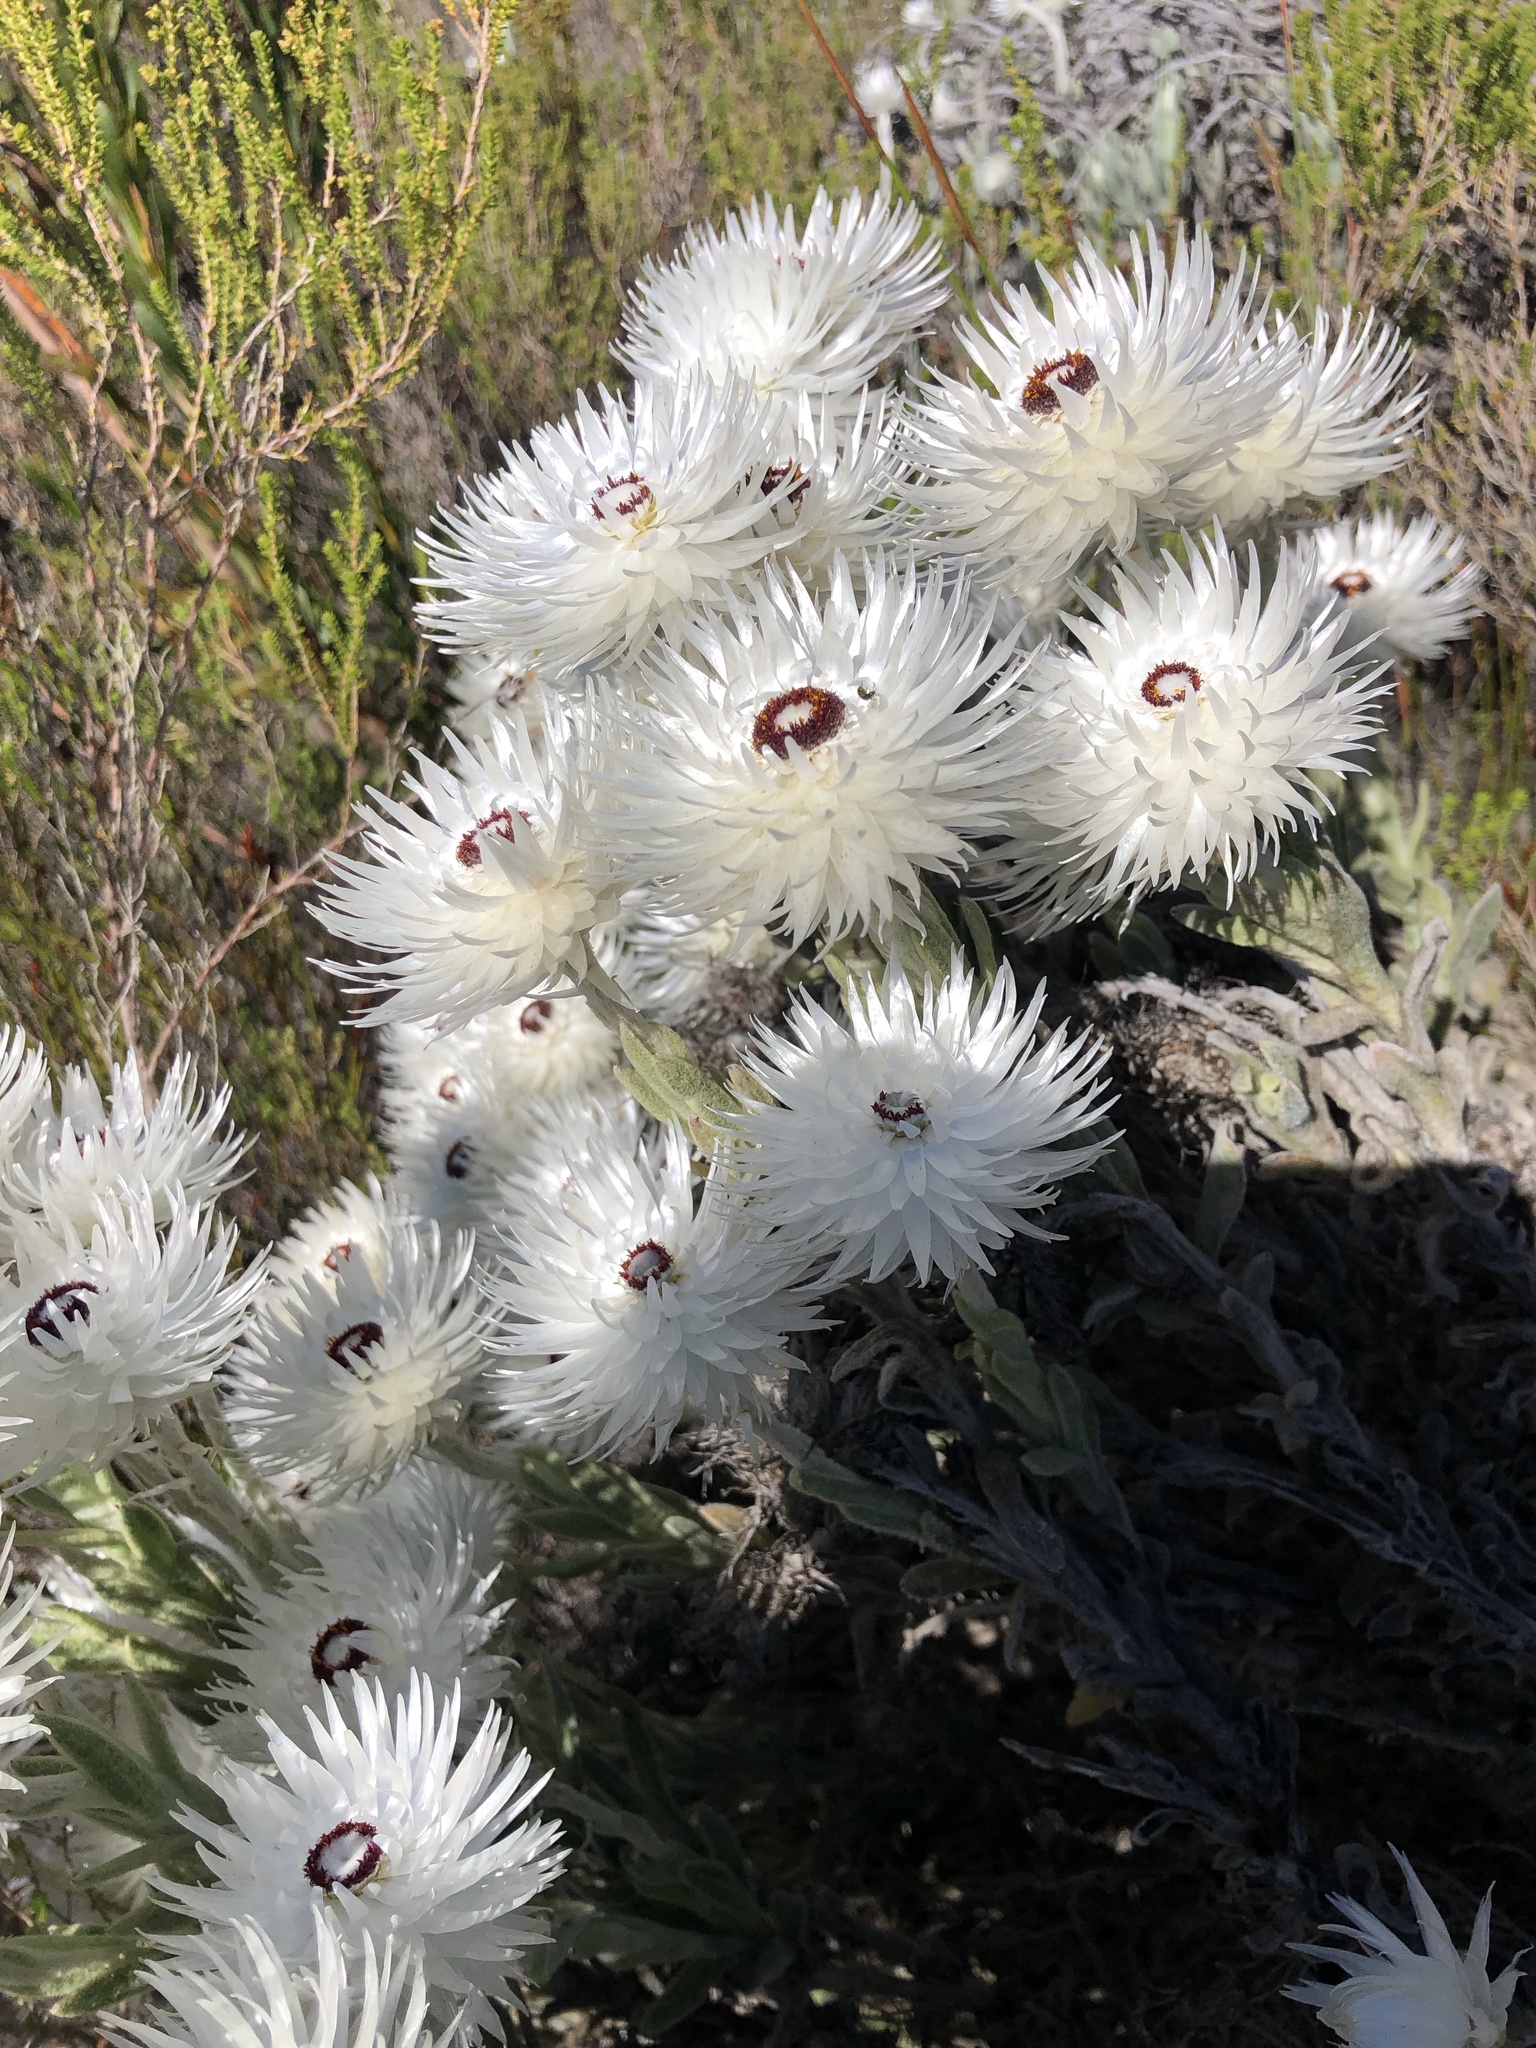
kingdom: Plantae
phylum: Tracheophyta
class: Magnoliopsida
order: Asterales
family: Asteraceae
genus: Syncarpha
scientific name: Syncarpha vestita
